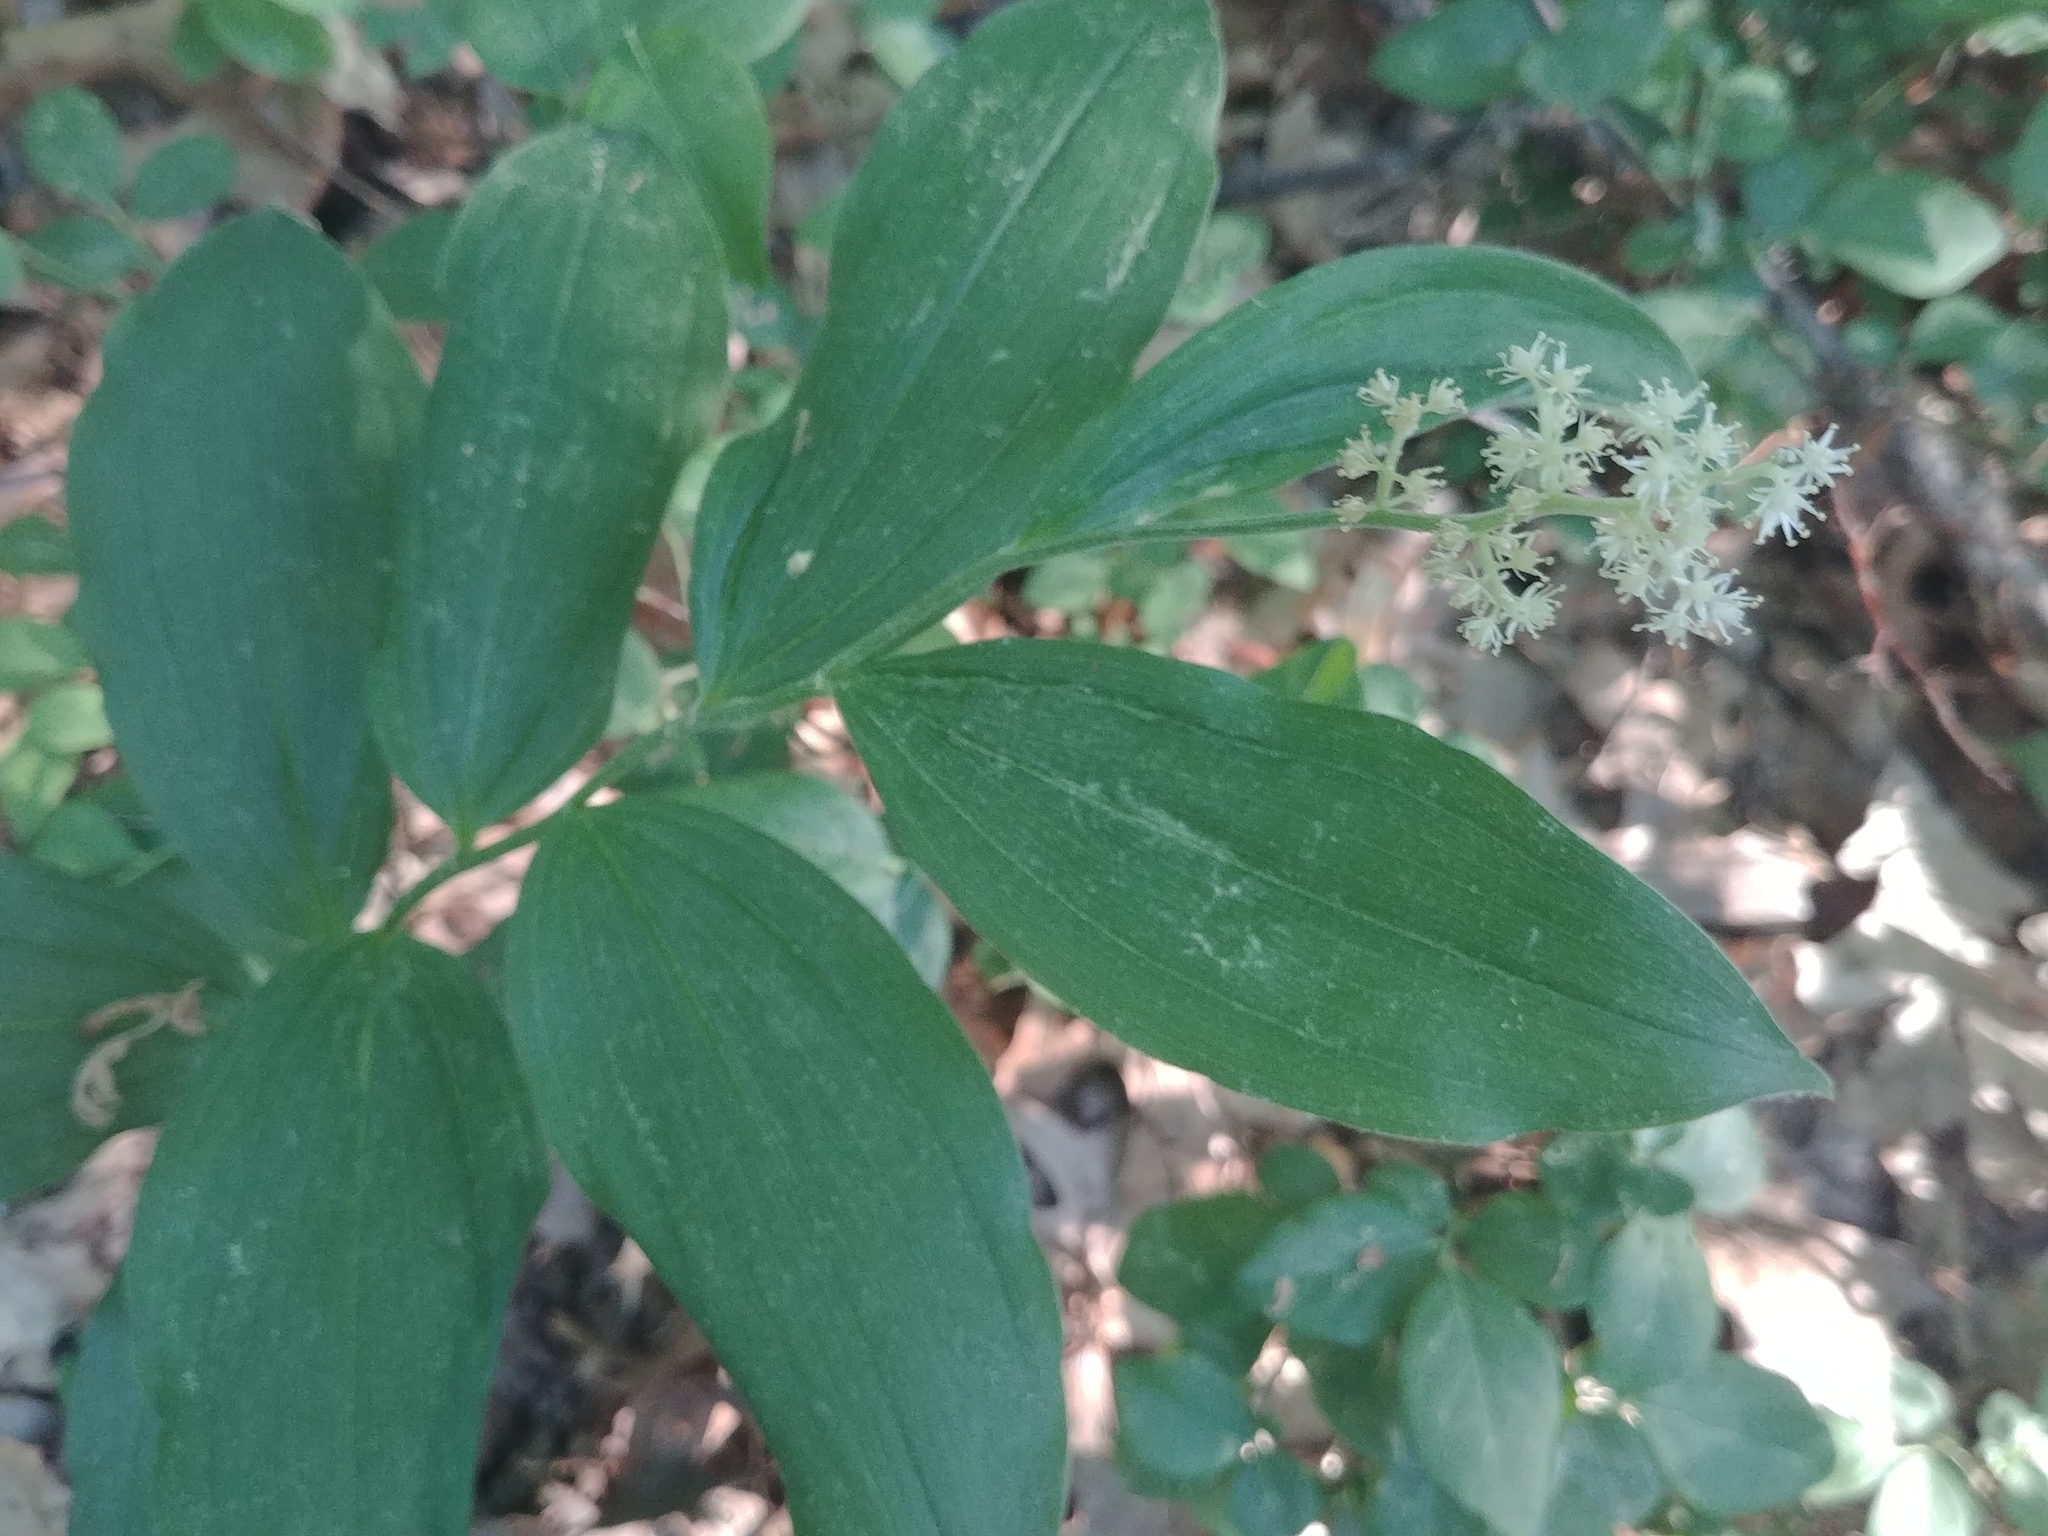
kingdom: Plantae
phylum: Tracheophyta
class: Liliopsida
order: Asparagales
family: Asparagaceae
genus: Maianthemum
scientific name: Maianthemum racemosum
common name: False spikenard
